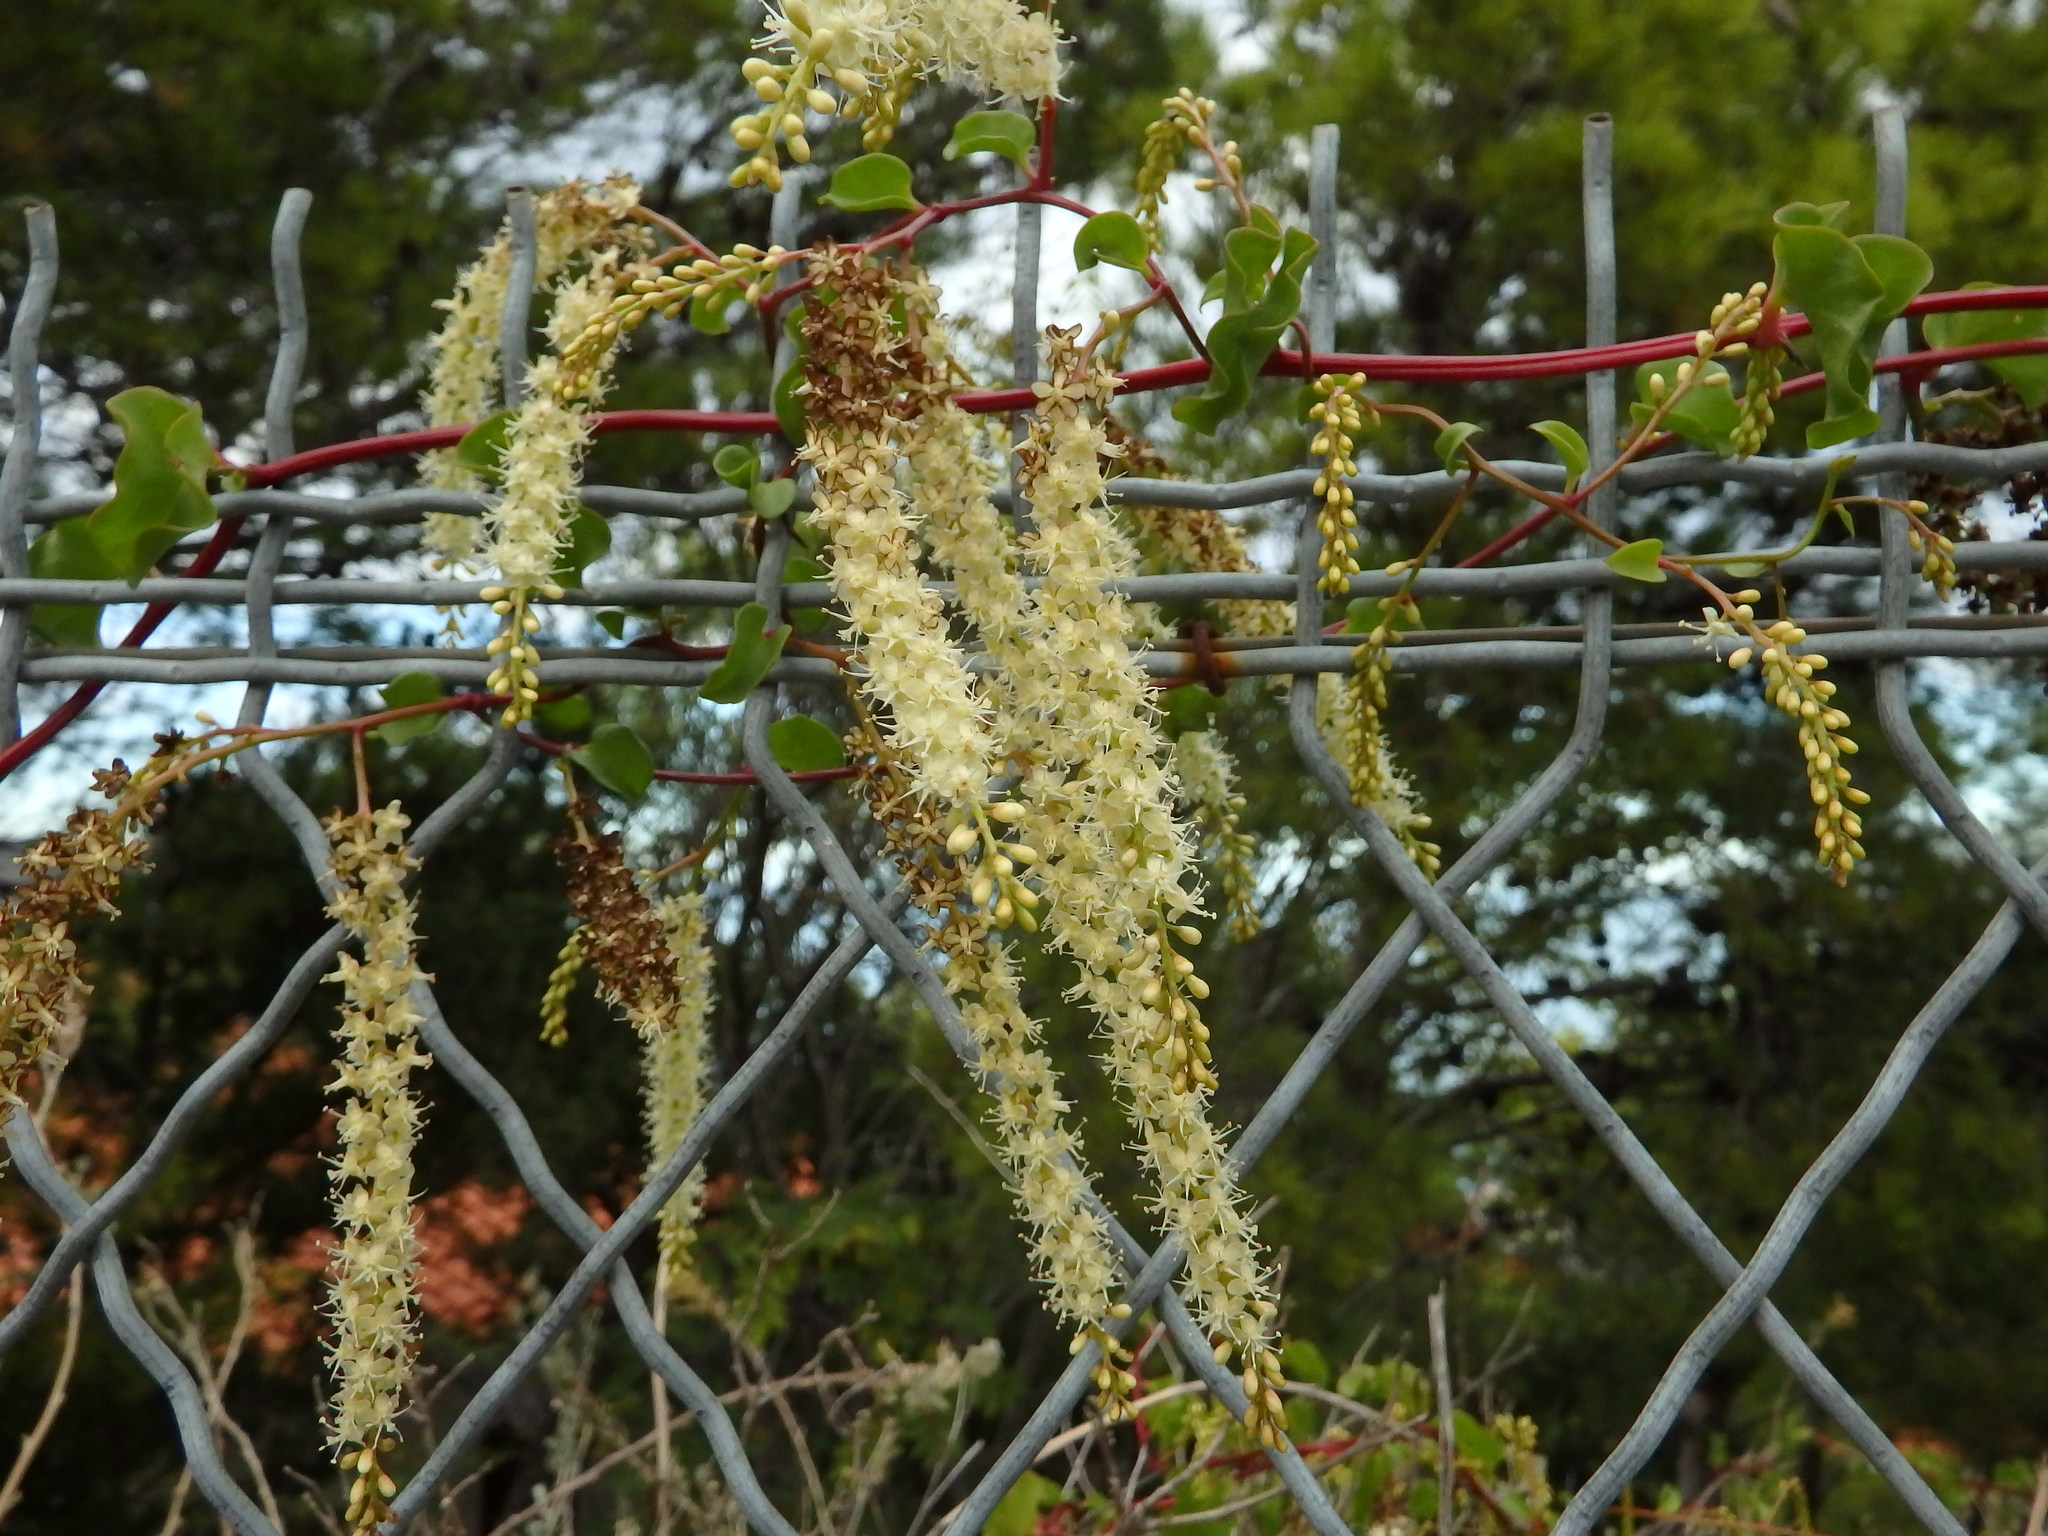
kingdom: Plantae
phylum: Tracheophyta
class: Magnoliopsida
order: Caryophyllales
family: Basellaceae
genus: Anredera
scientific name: Anredera cordifolia
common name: Heartleaf madeiravine
